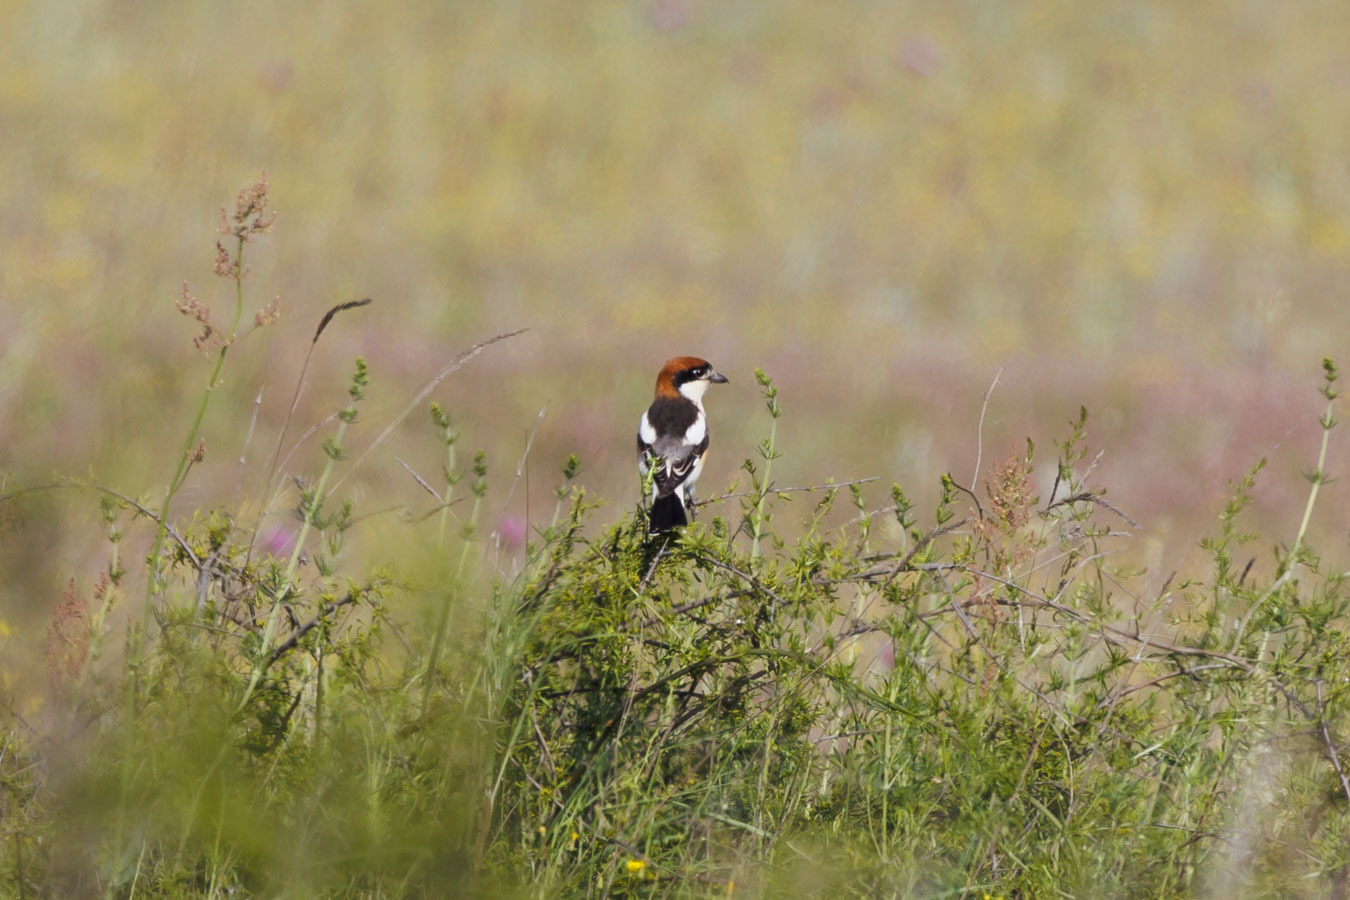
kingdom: Animalia
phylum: Chordata
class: Aves
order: Passeriformes
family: Laniidae
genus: Lanius
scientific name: Lanius senator
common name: Woodchat shrike
